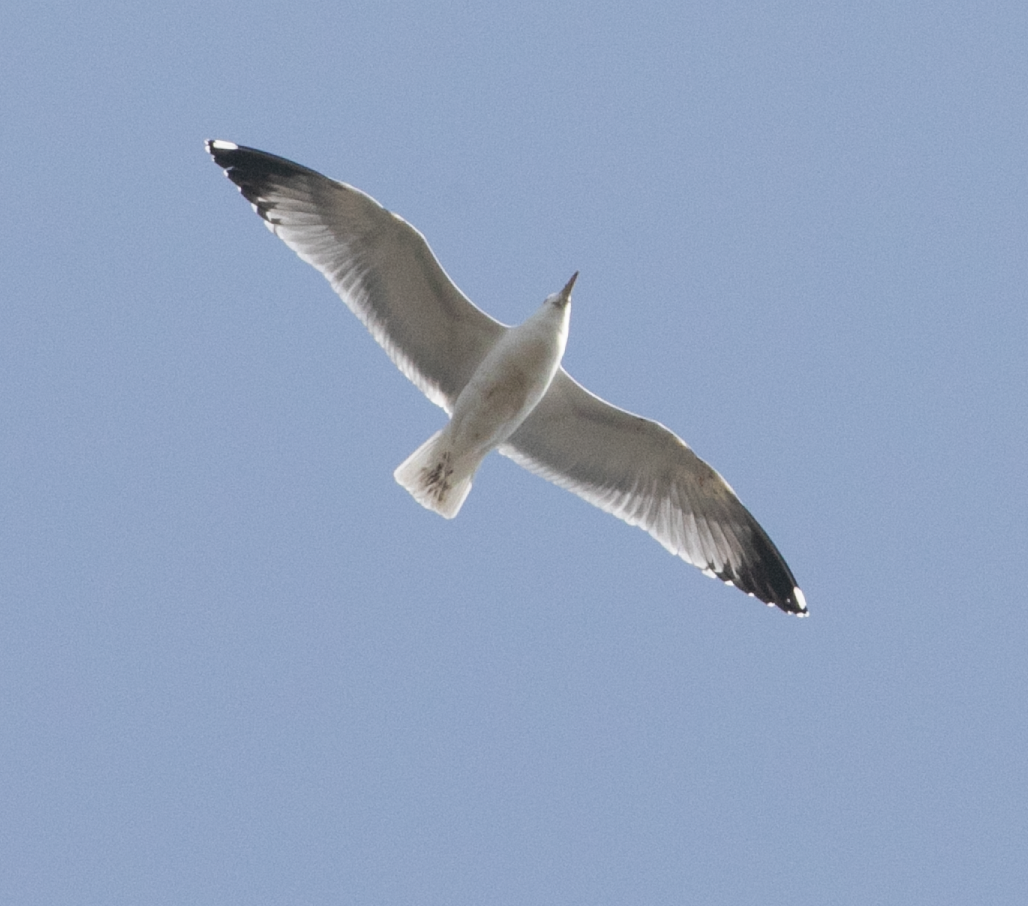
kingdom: Animalia
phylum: Chordata
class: Aves
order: Charadriiformes
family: Laridae
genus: Larus
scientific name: Larus michahellis
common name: Yellow-legged gull
